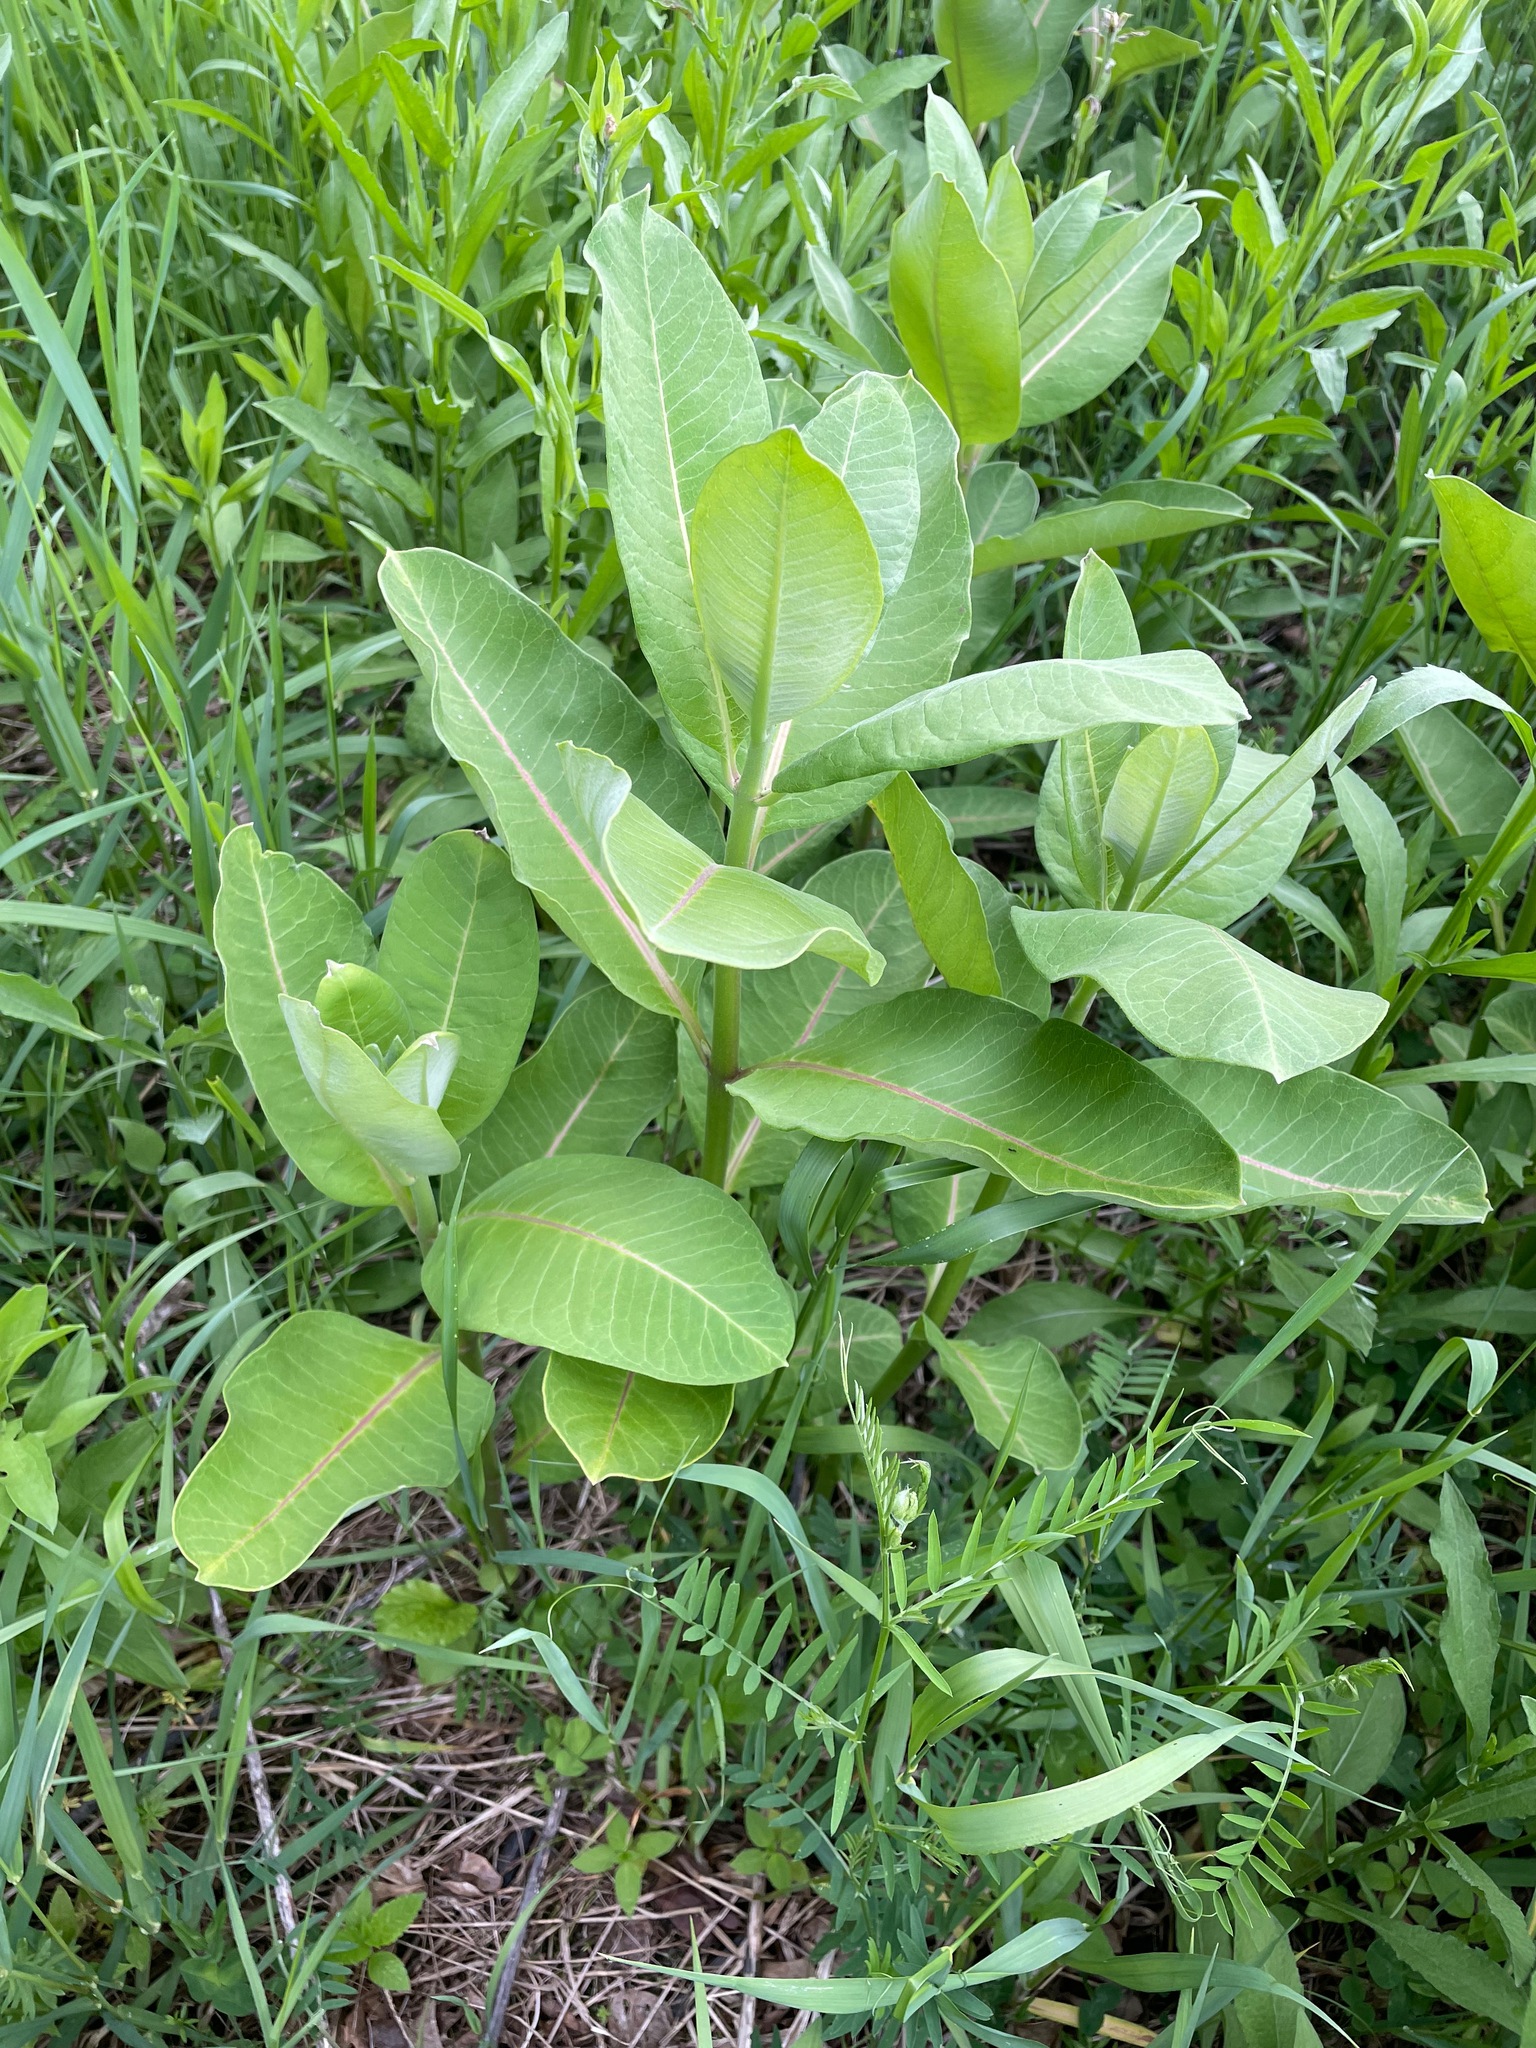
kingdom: Plantae
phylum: Tracheophyta
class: Magnoliopsida
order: Gentianales
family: Apocynaceae
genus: Asclepias
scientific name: Asclepias syriaca
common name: Common milkweed
